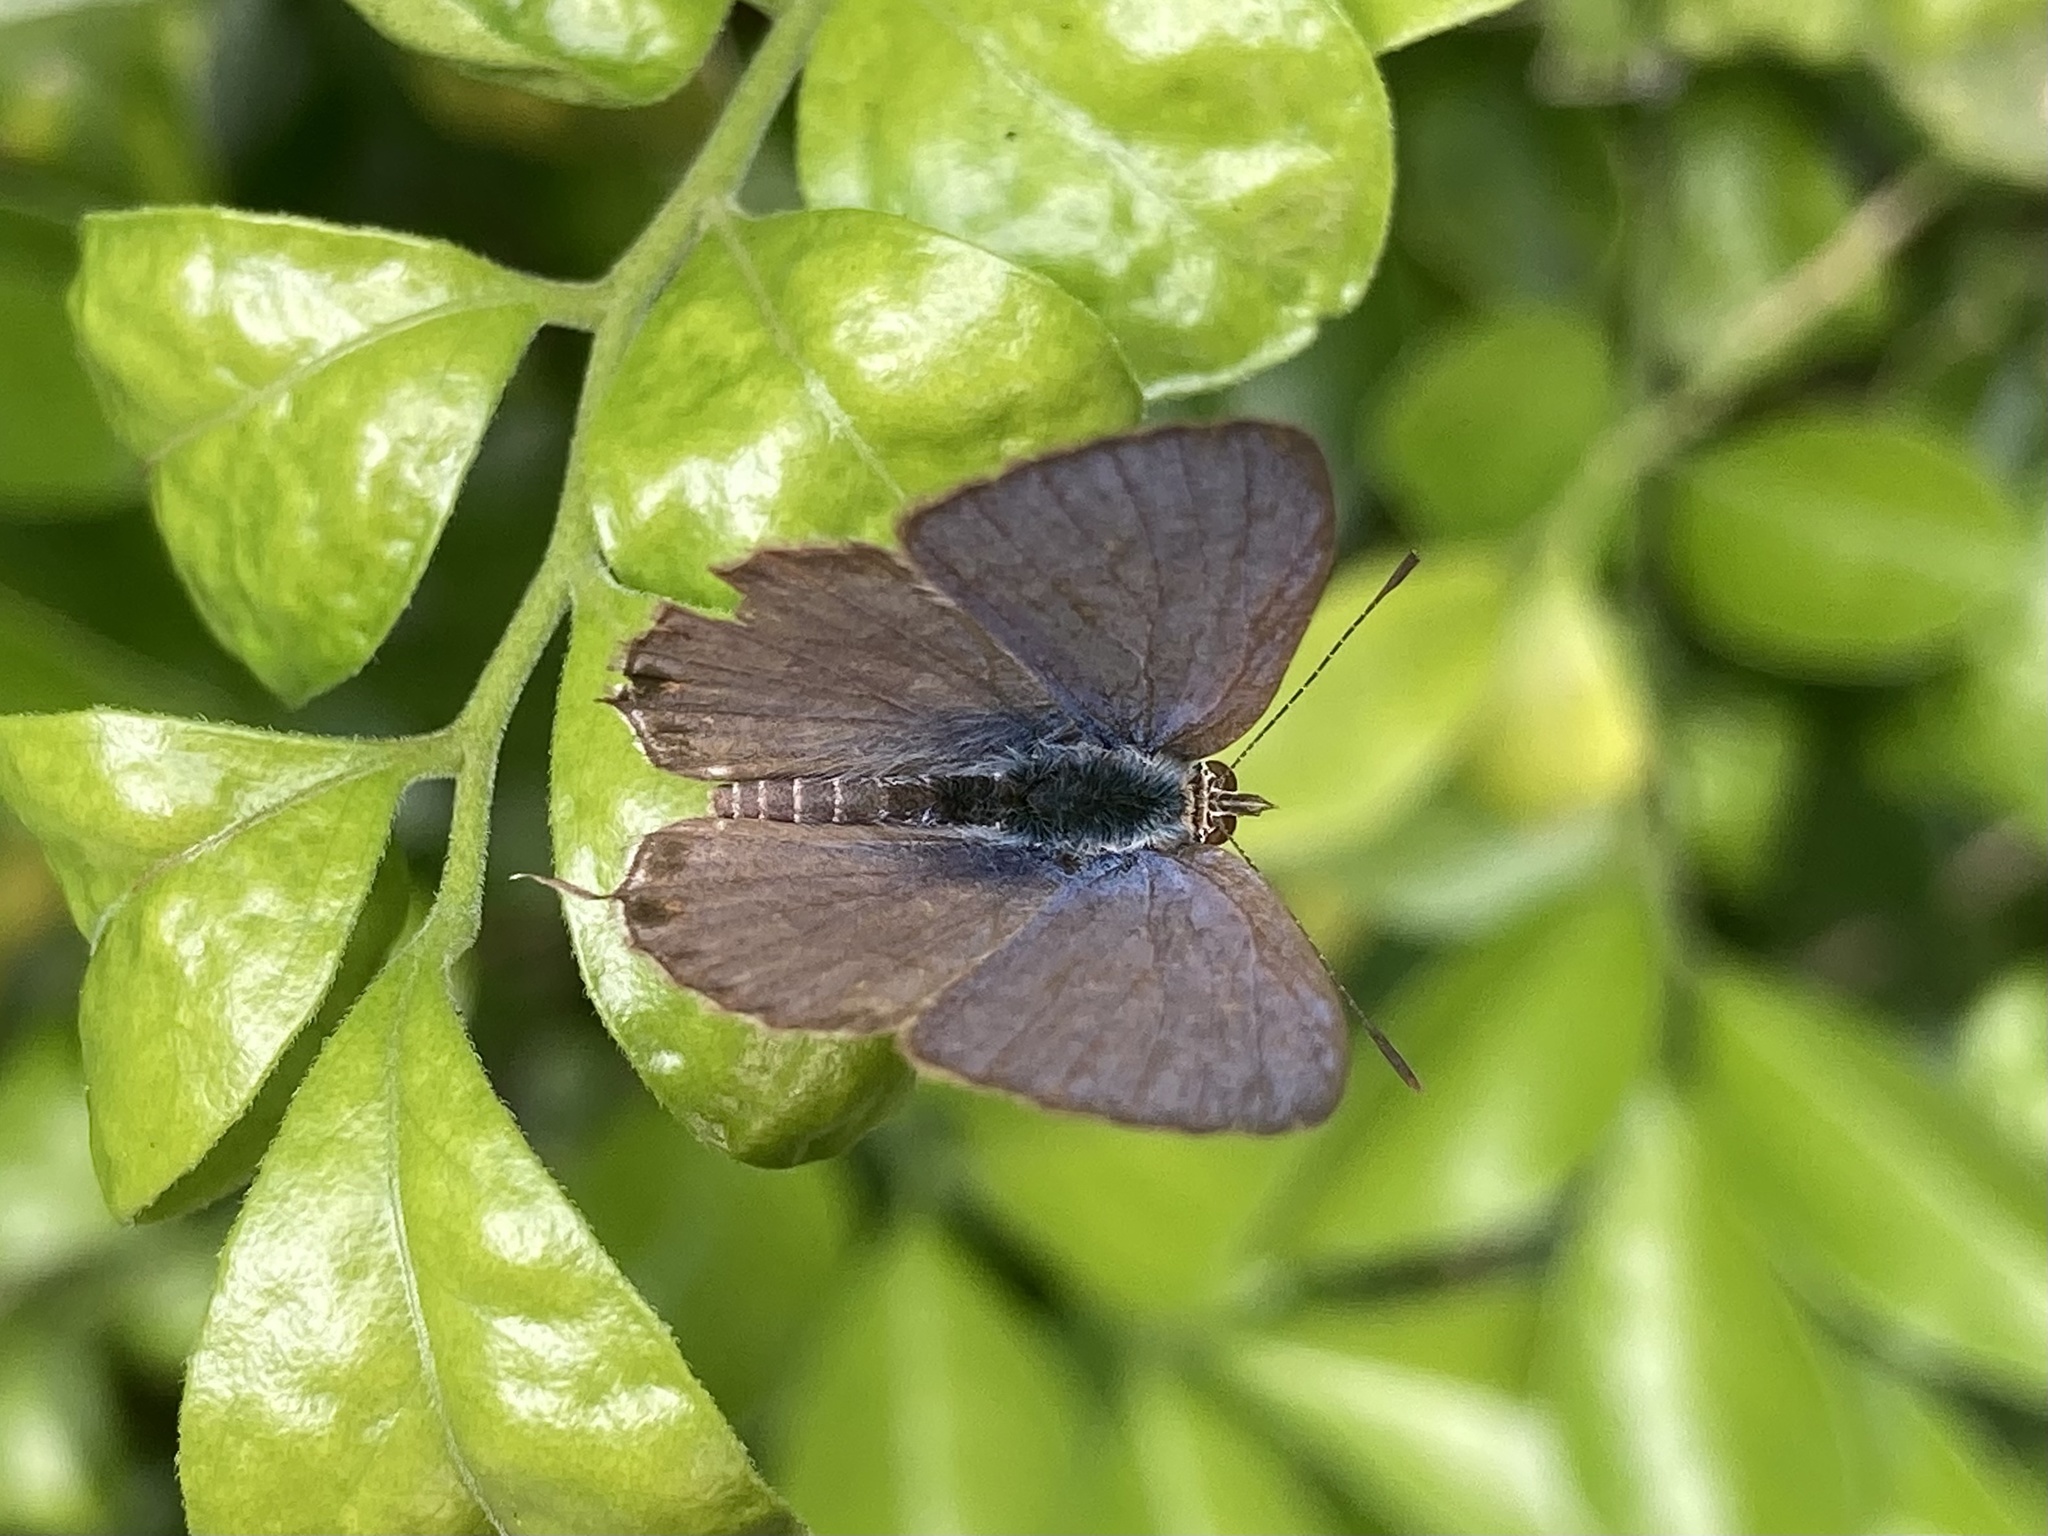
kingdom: Animalia
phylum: Arthropoda
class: Insecta
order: Lepidoptera
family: Lycaenidae
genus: Catopyrops
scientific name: Catopyrops florinda
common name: Speckled line-blue
